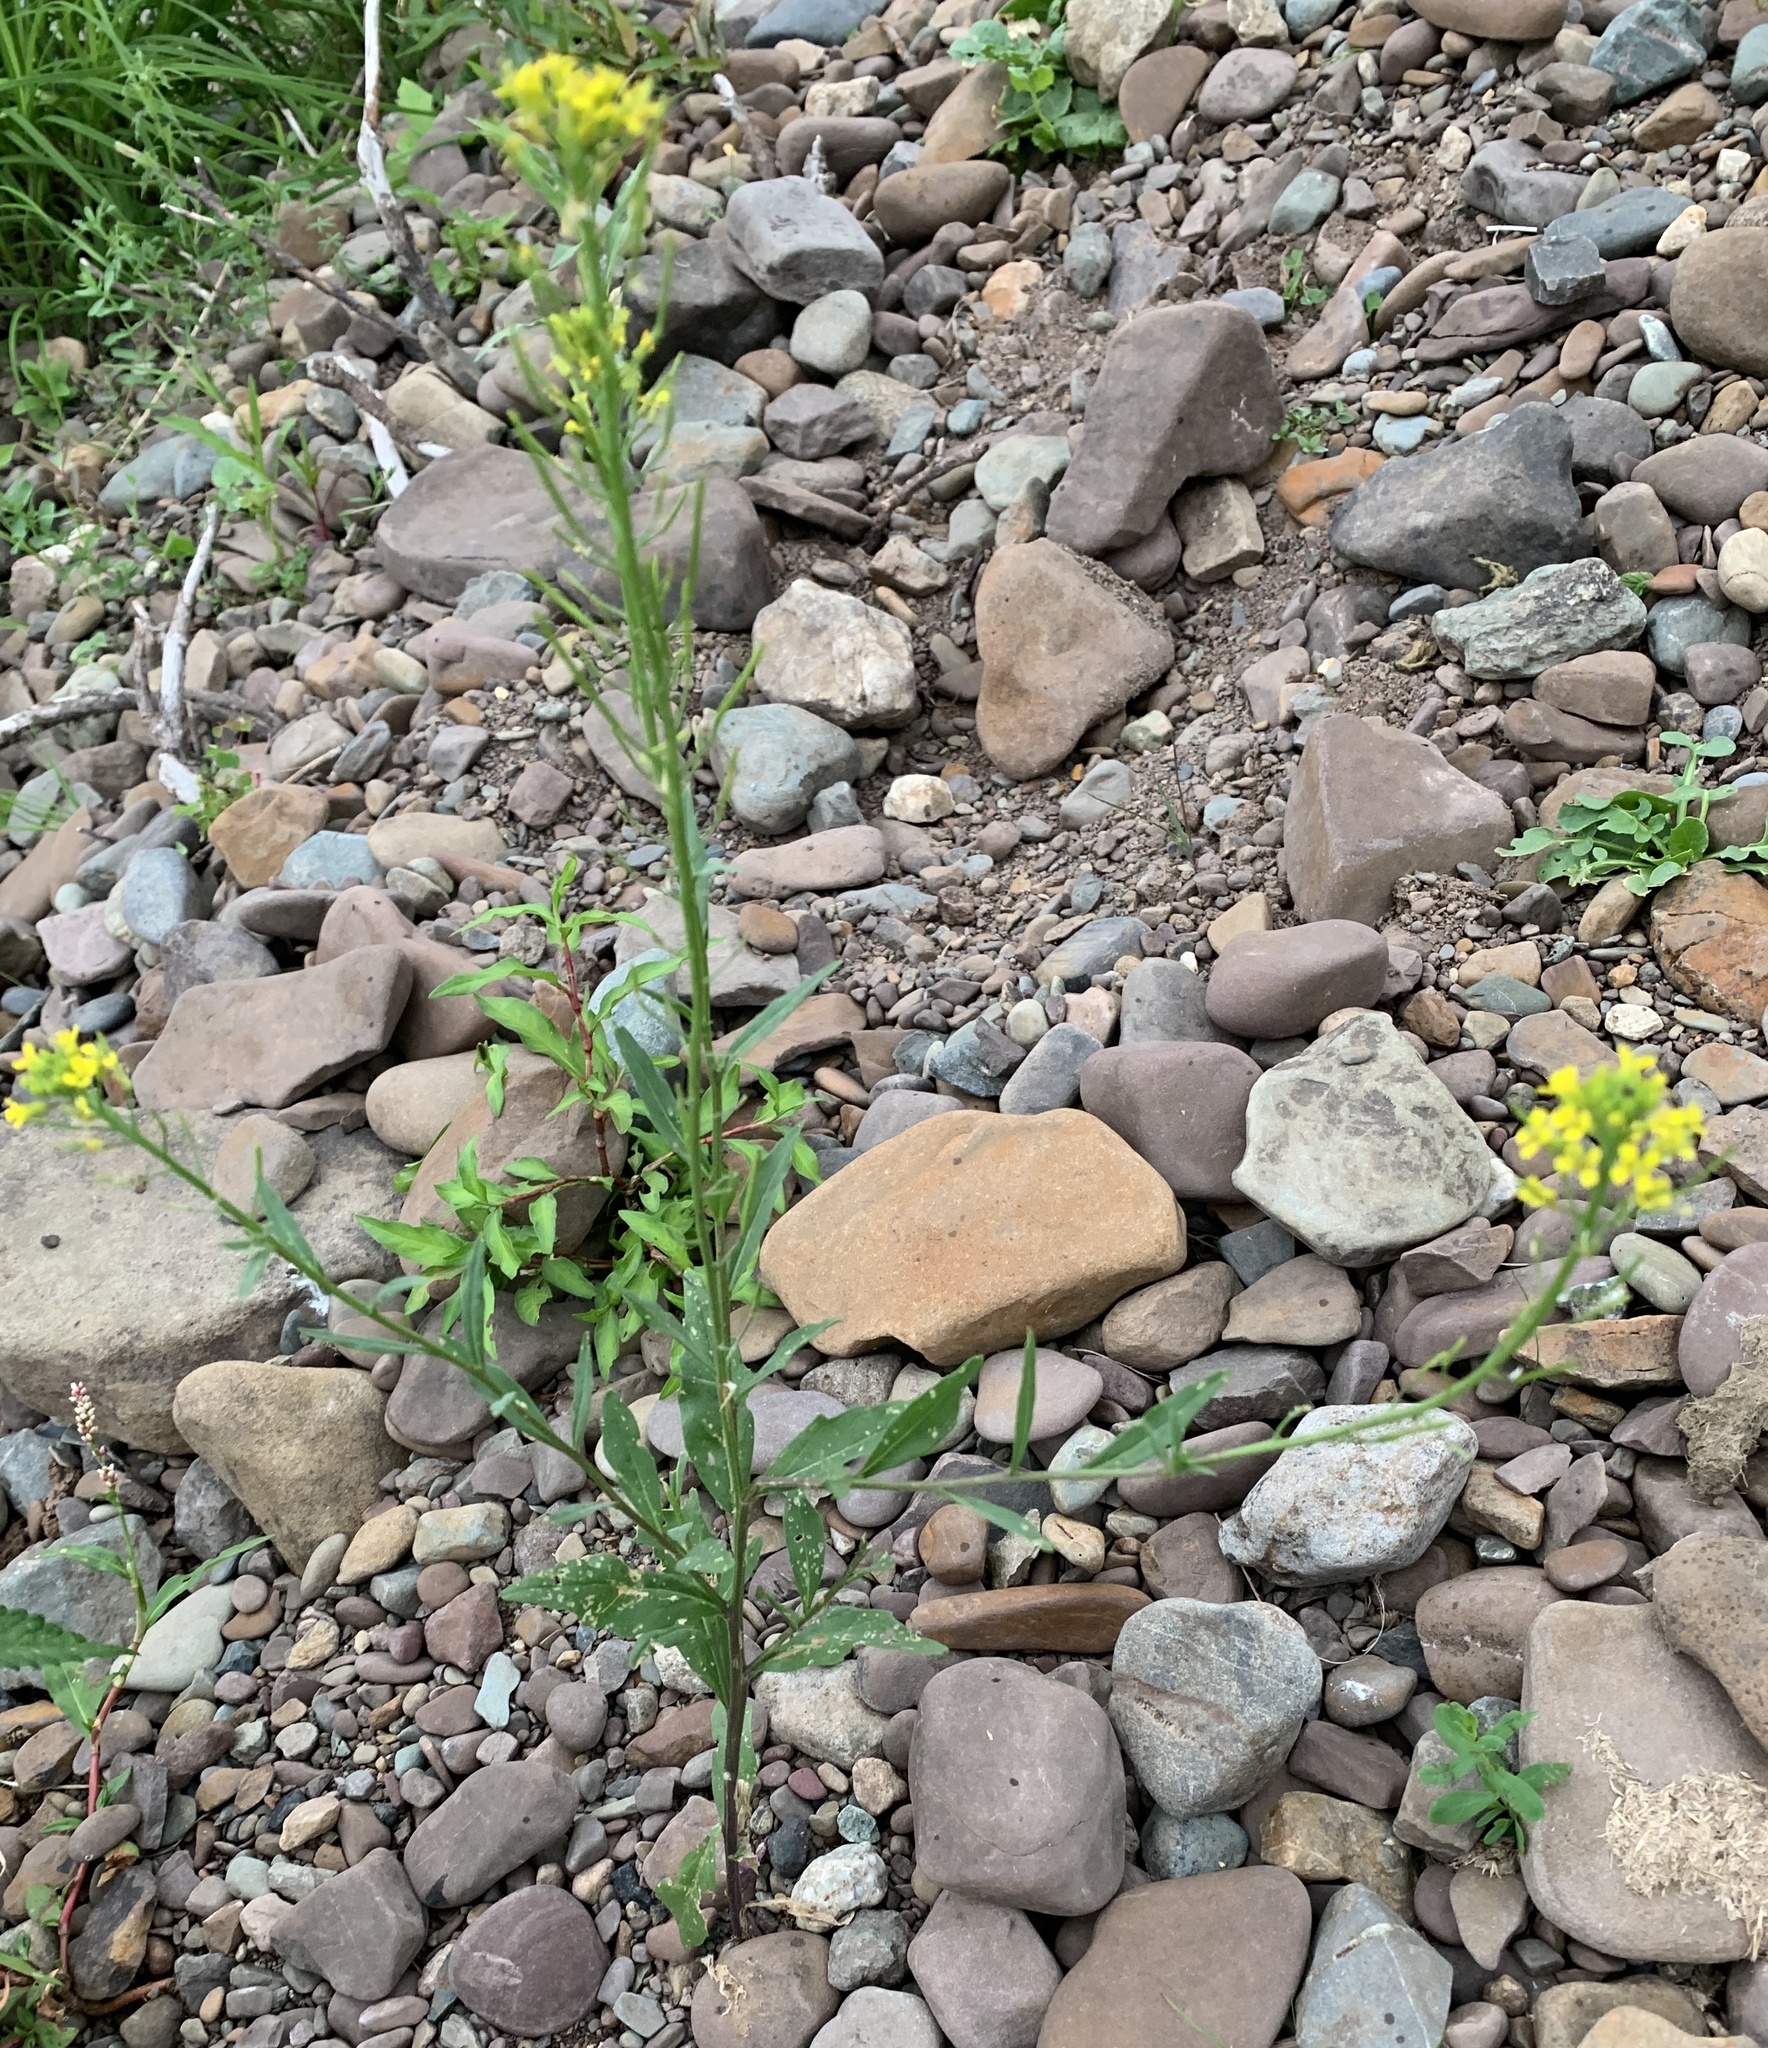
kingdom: Plantae
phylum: Tracheophyta
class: Magnoliopsida
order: Brassicales
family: Brassicaceae
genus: Erysimum
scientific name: Erysimum cheiranthoides
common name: Treacle mustard
